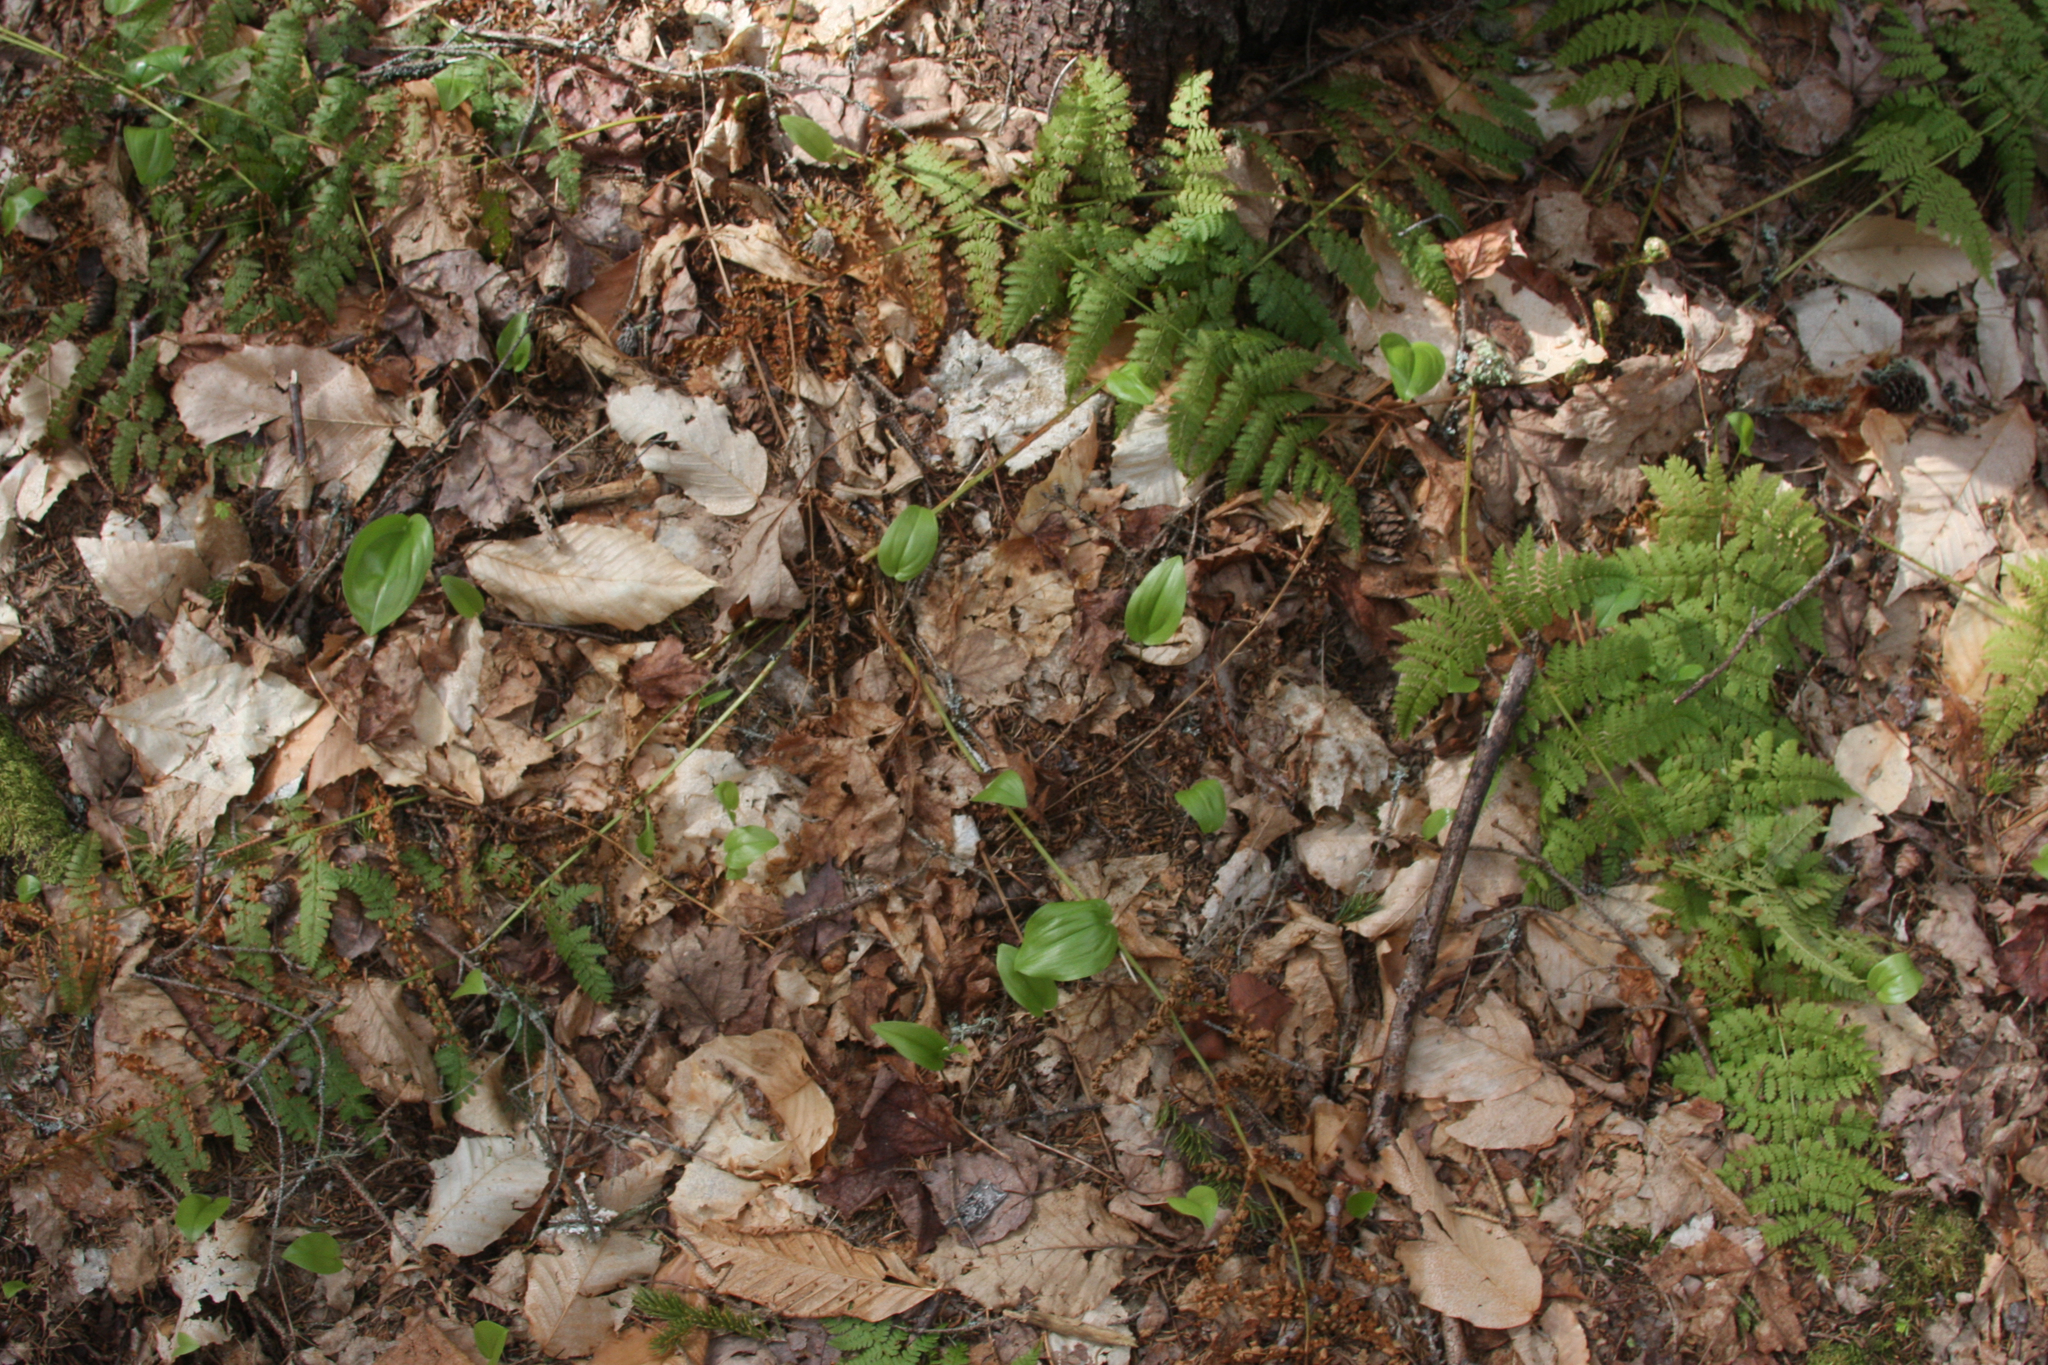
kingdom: Plantae
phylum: Tracheophyta
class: Liliopsida
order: Asparagales
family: Asparagaceae
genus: Maianthemum
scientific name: Maianthemum canadense
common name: False lily-of-the-valley
